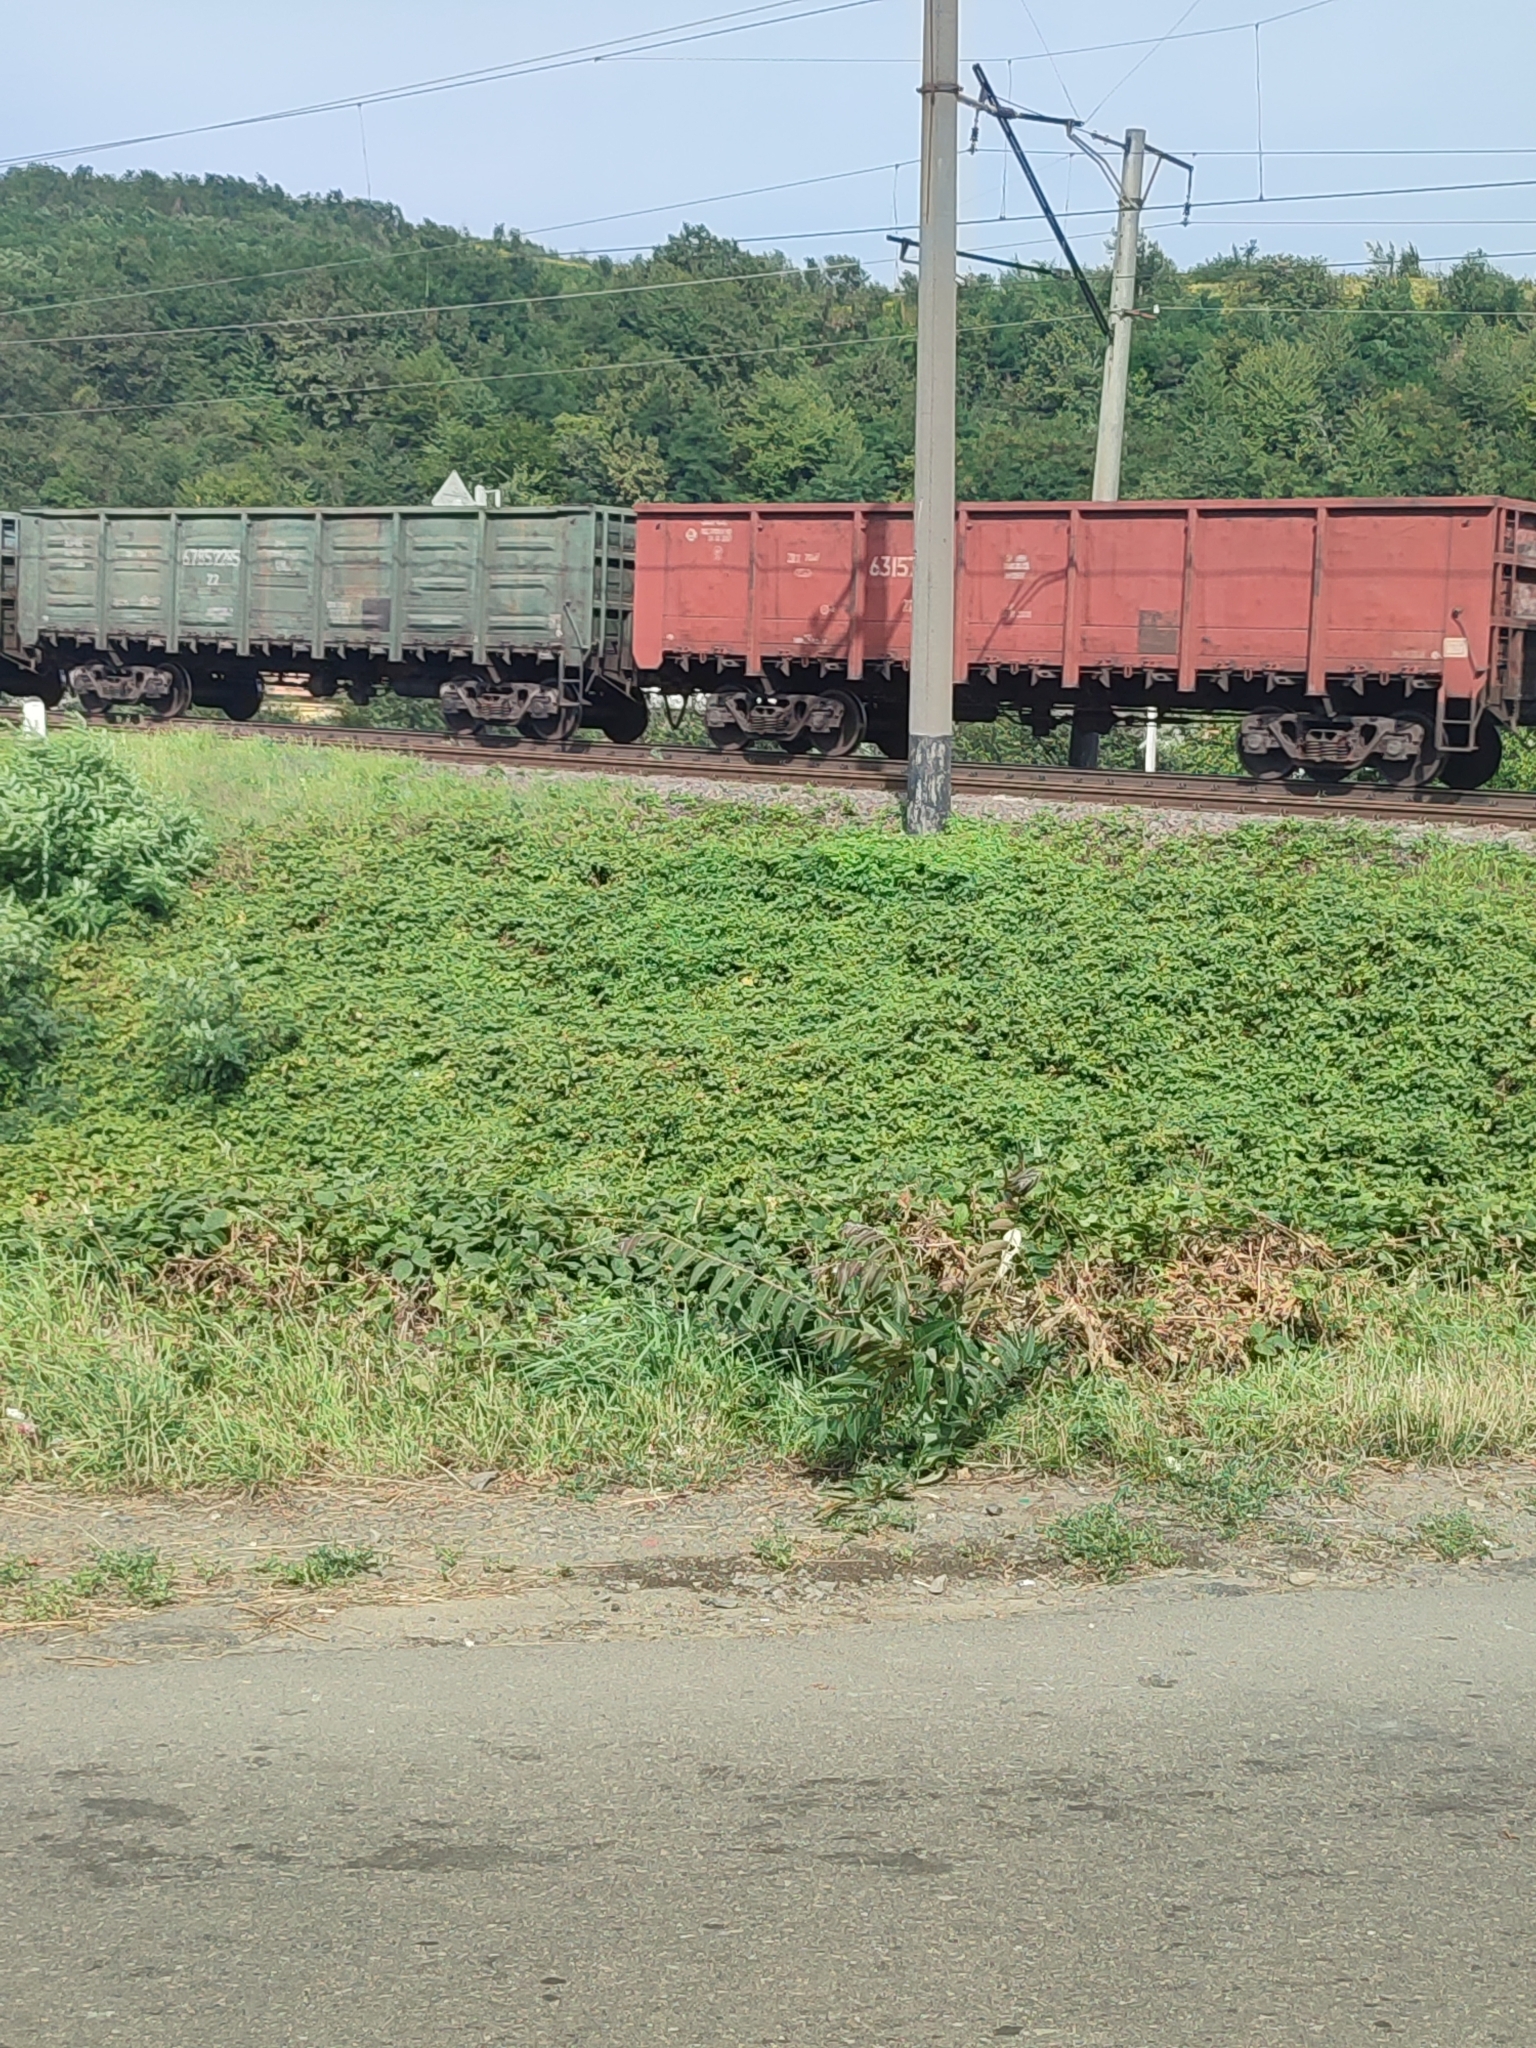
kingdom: Plantae
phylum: Tracheophyta
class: Magnoliopsida
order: Sapindales
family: Simaroubaceae
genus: Ailanthus
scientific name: Ailanthus altissima
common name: Tree-of-heaven
